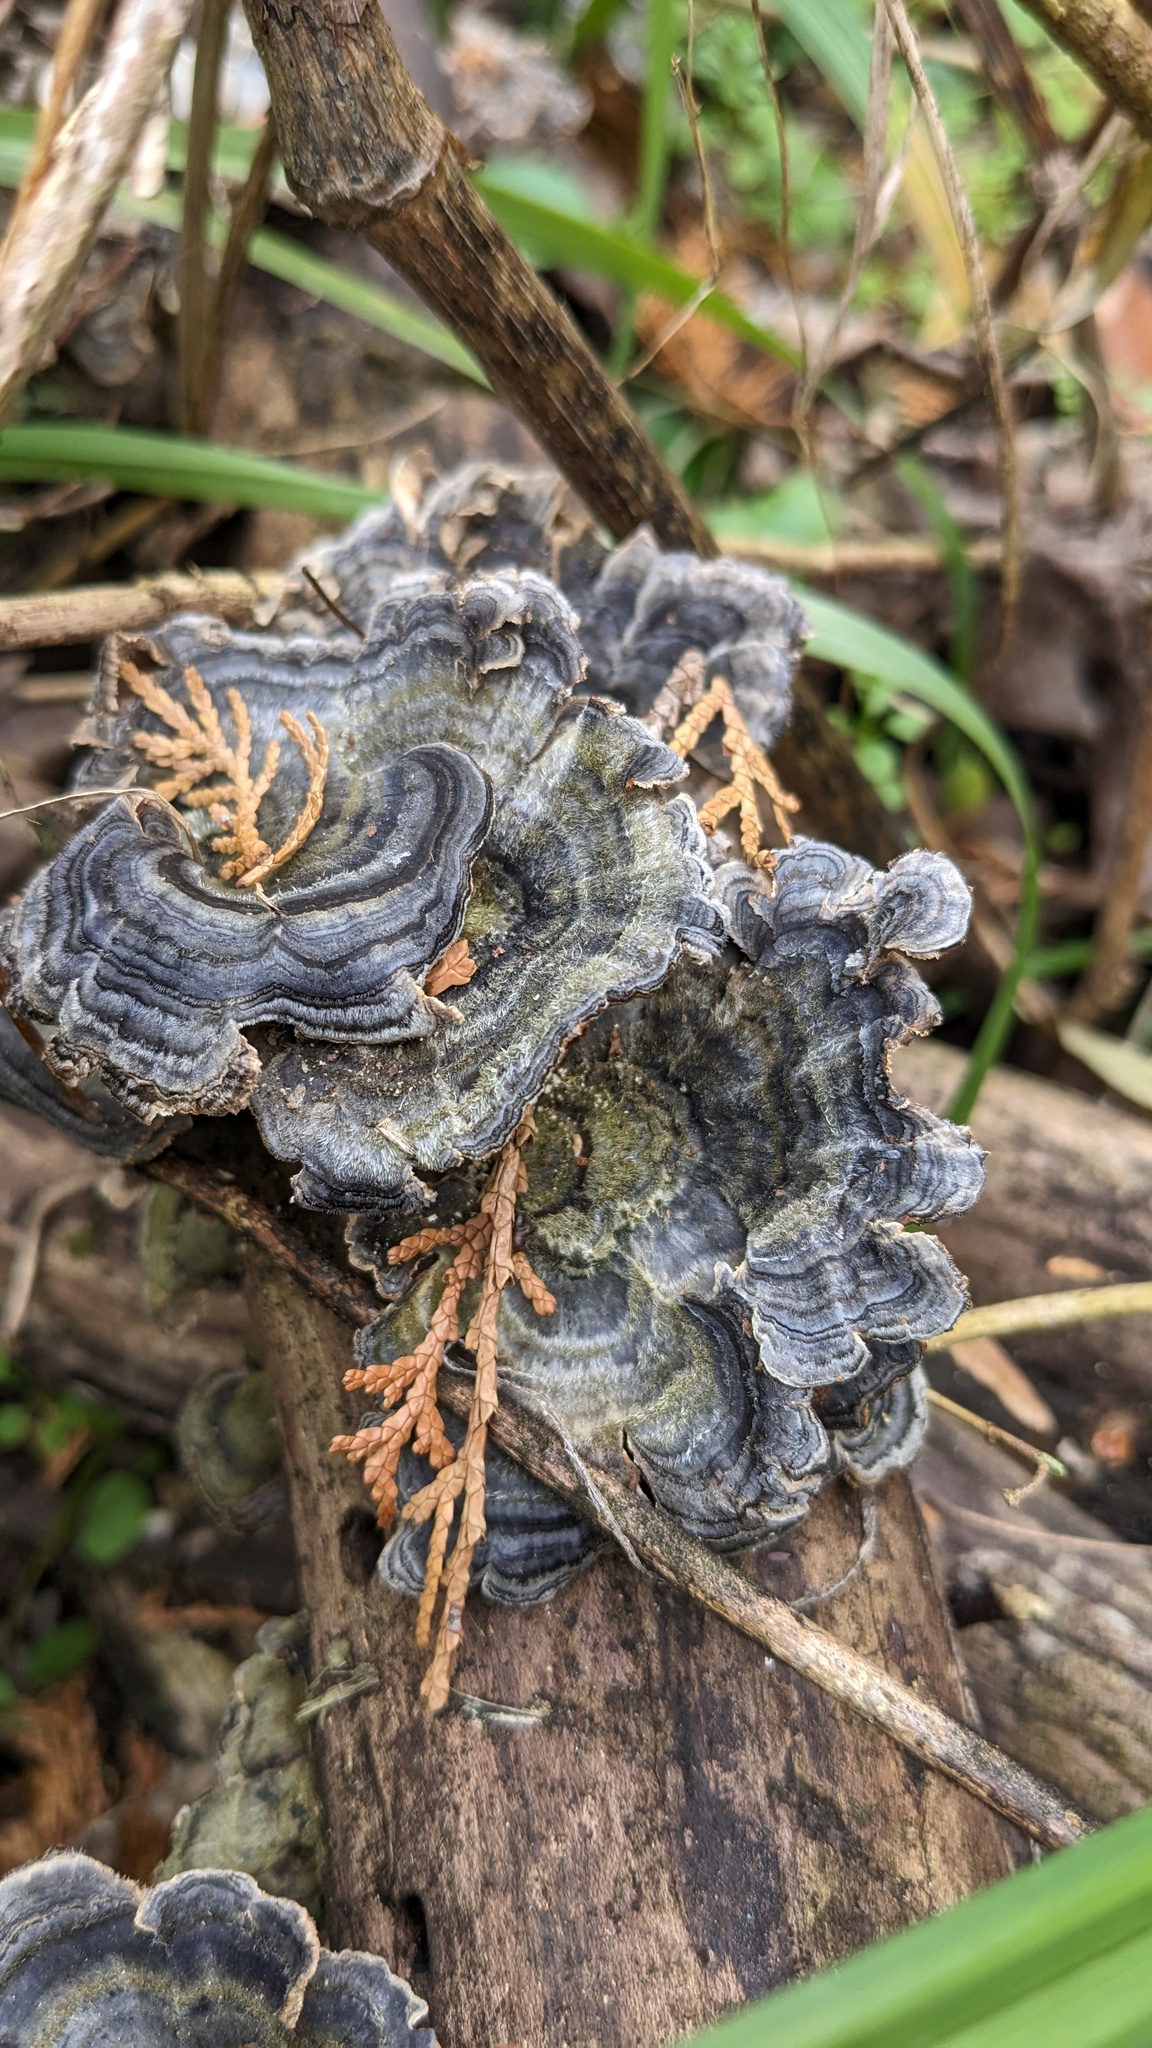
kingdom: Fungi
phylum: Basidiomycota
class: Agaricomycetes
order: Polyporales
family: Polyporaceae
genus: Trametes
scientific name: Trametes versicolor
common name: Turkeytail
